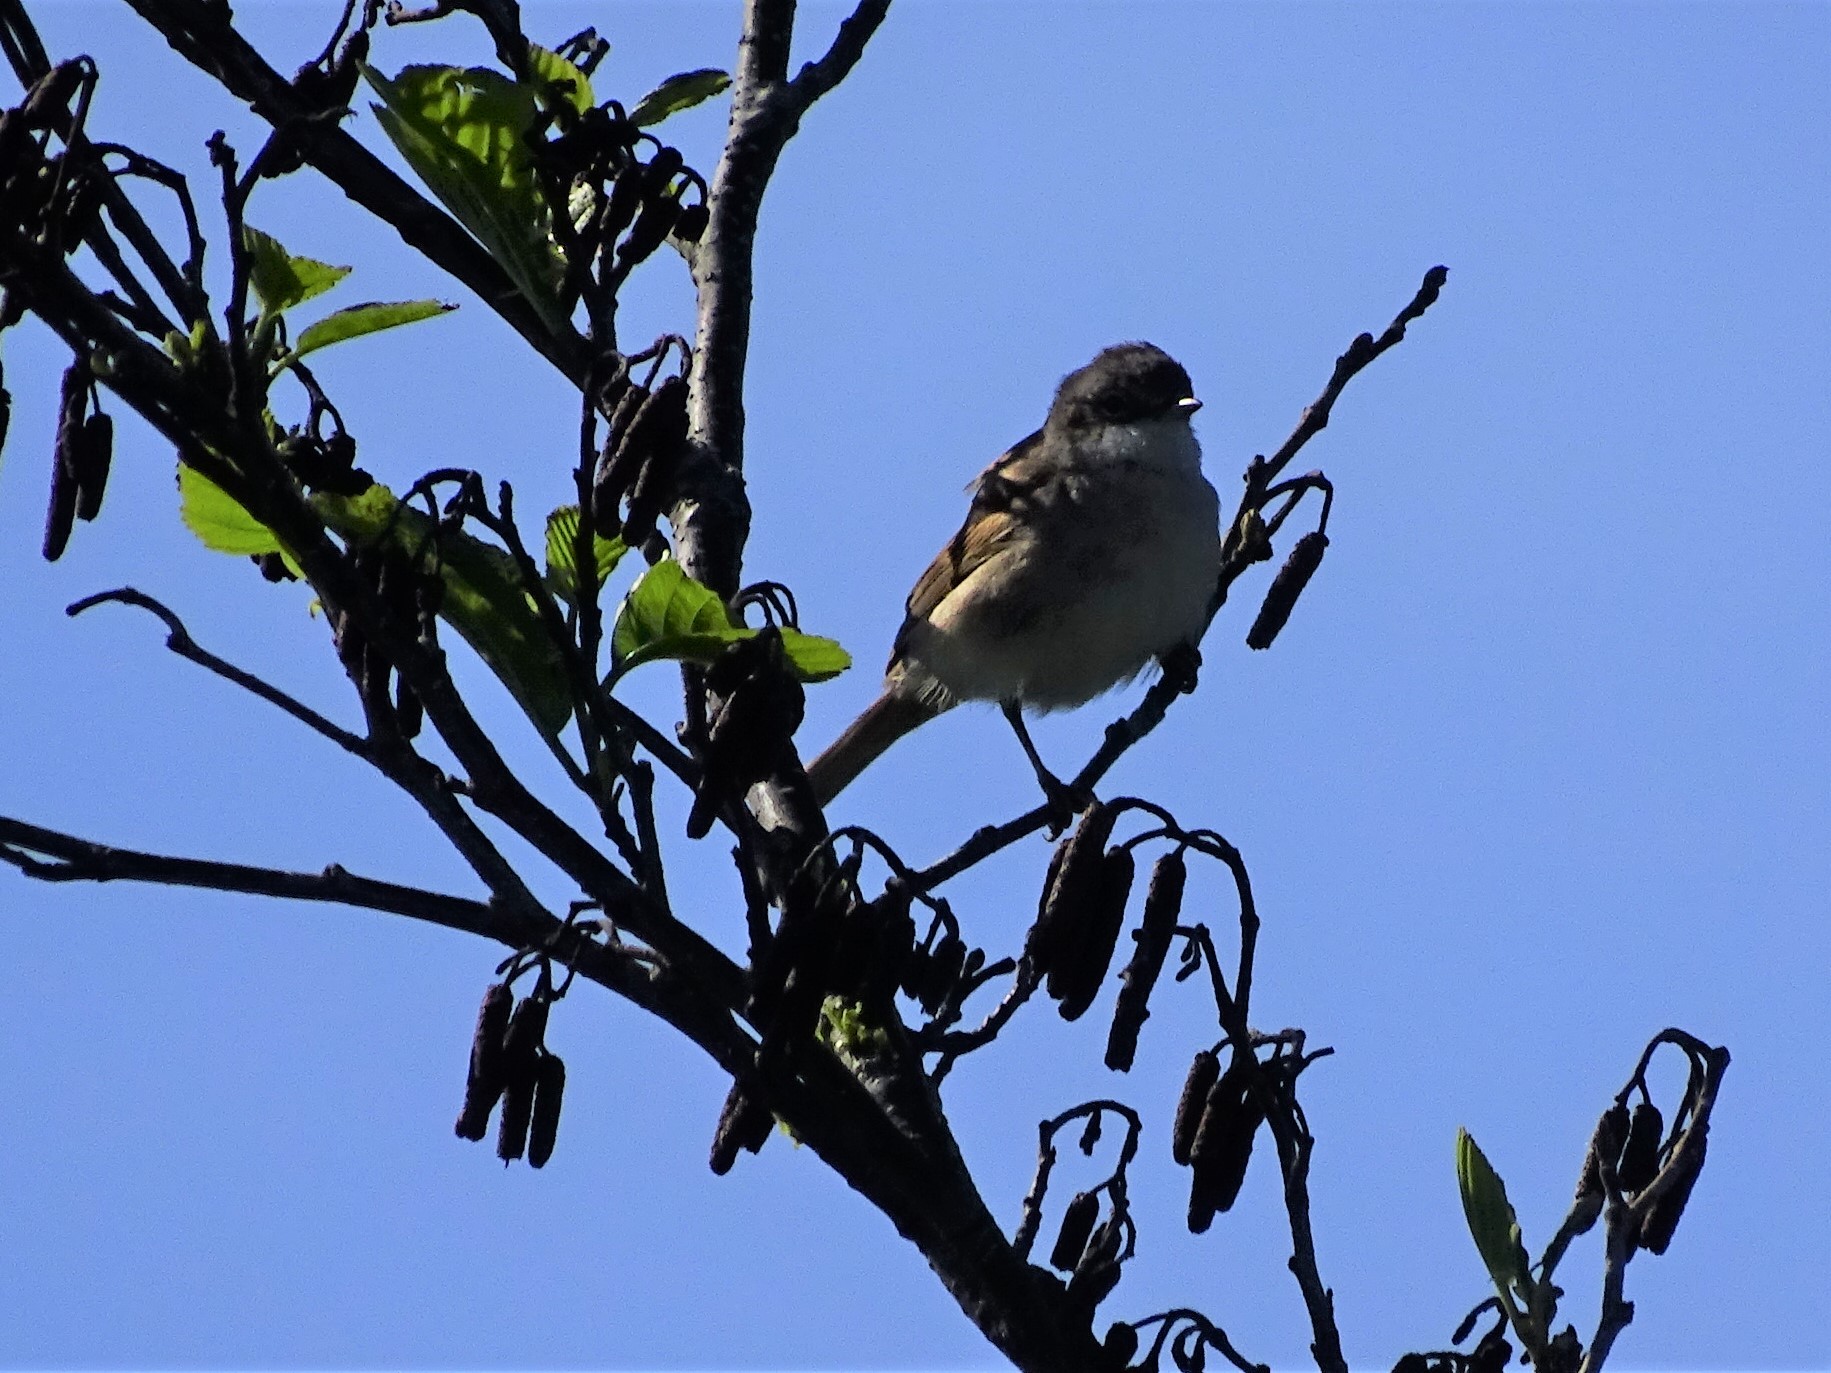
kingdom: Animalia
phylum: Chordata
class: Aves
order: Passeriformes
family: Sylviidae
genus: Sylvia
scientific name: Sylvia communis
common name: Common whitethroat
